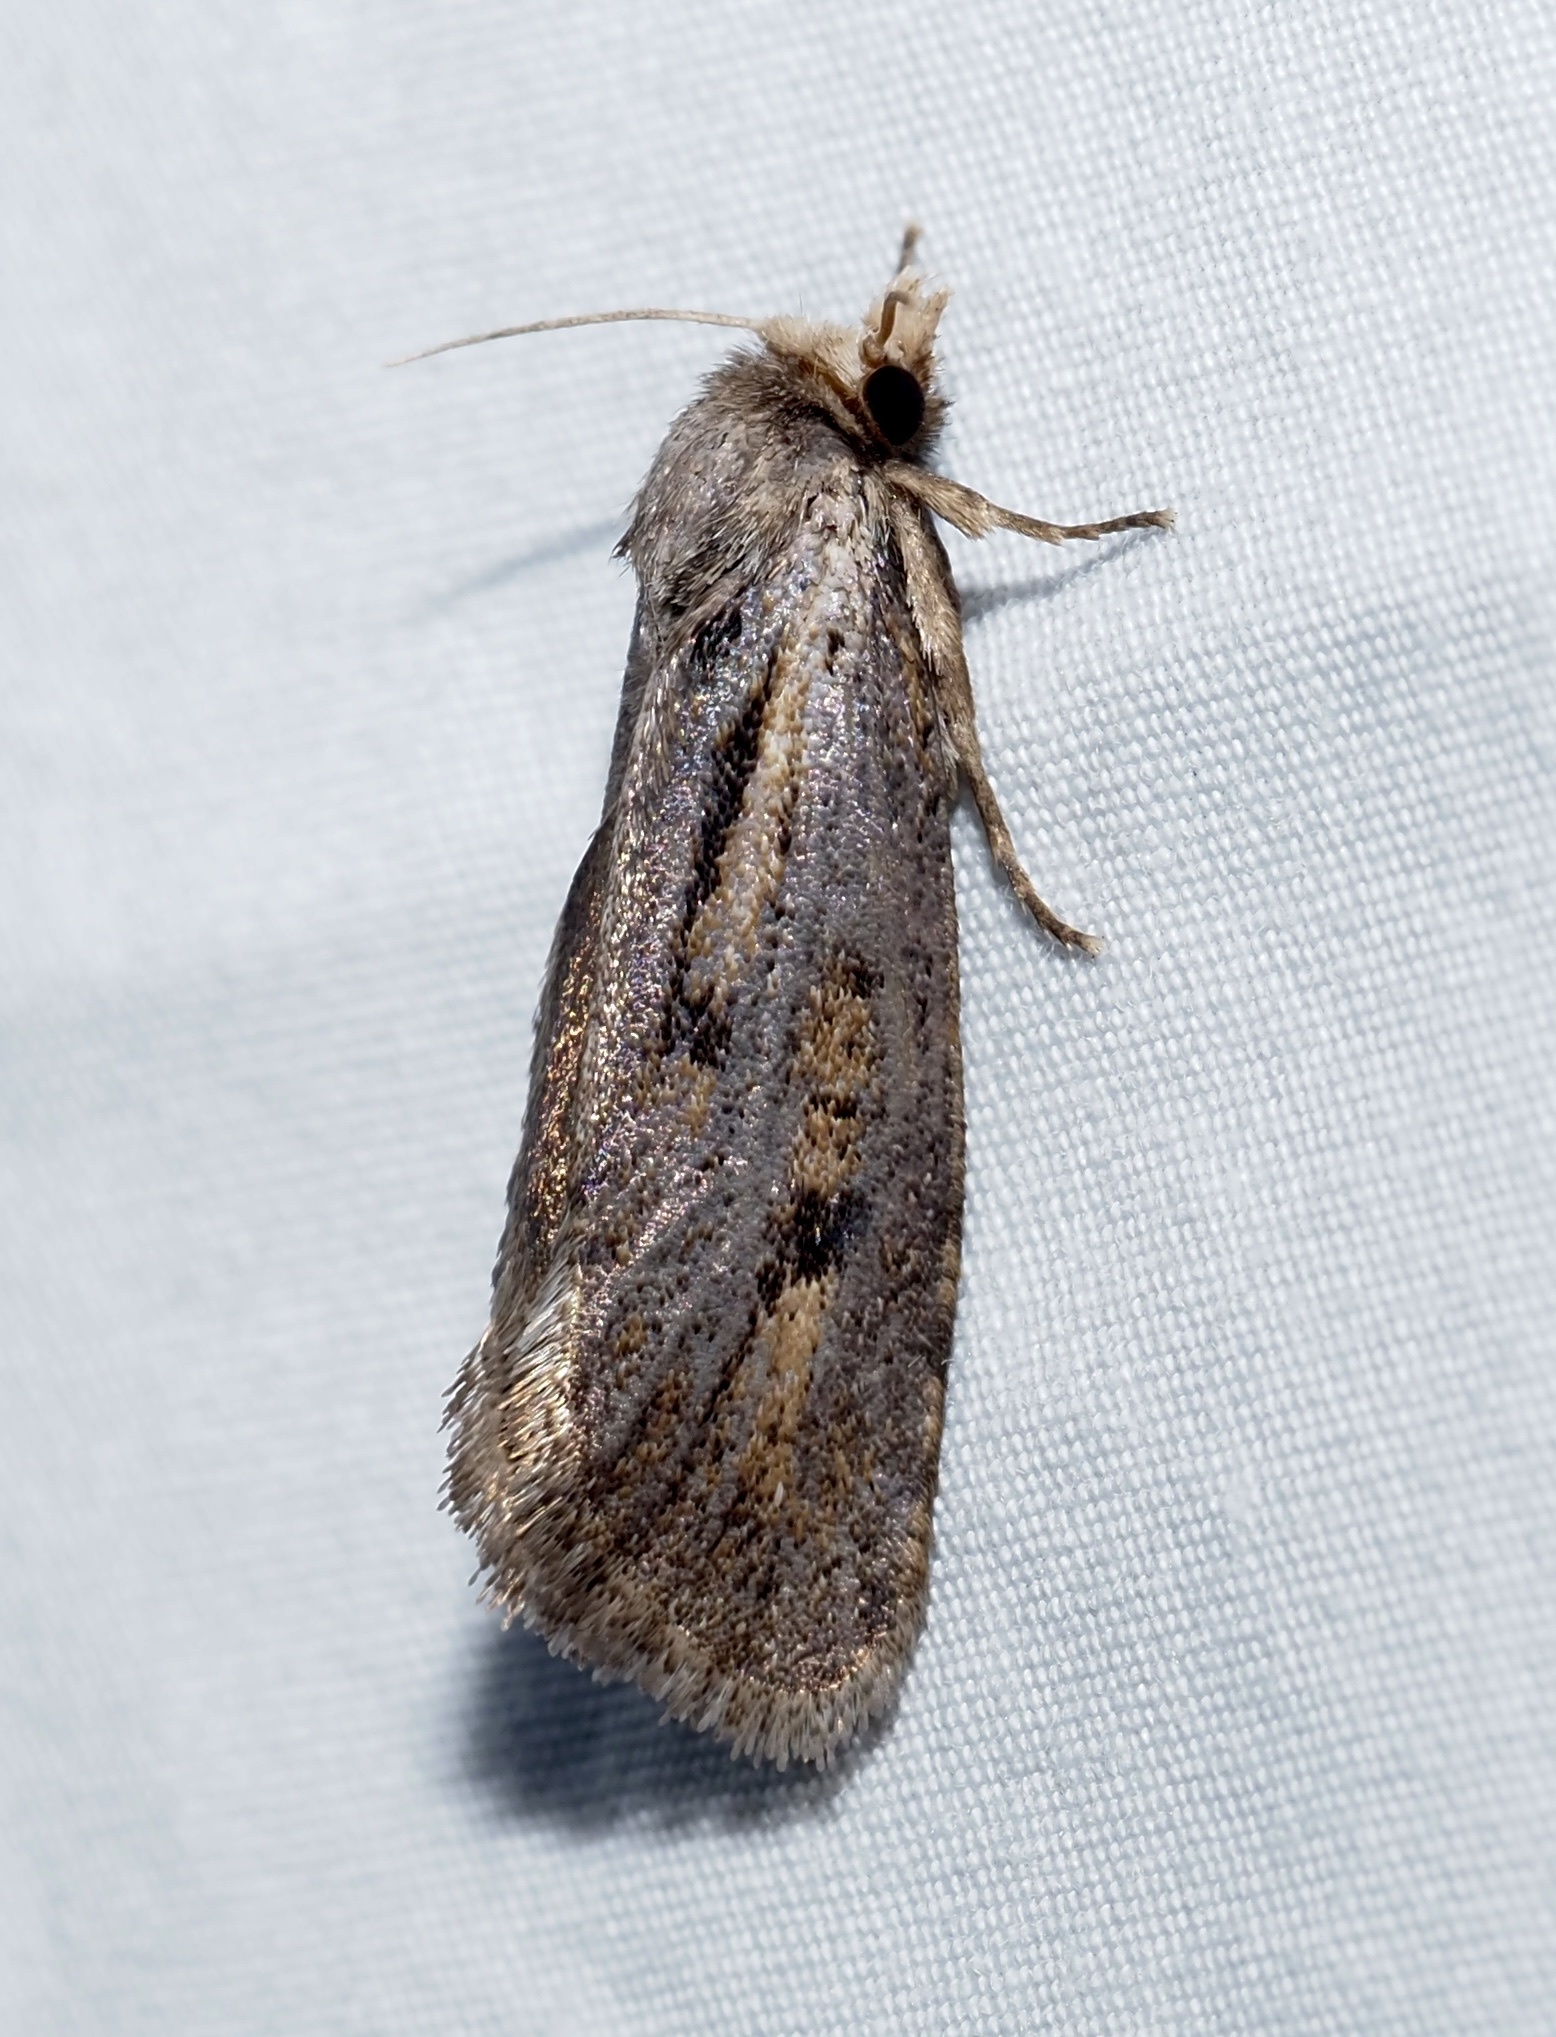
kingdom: Animalia
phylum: Arthropoda
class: Insecta
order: Lepidoptera
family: Tineidae
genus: Acrolophus
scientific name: Acrolophus popeanella
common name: Clemens' grass tubeworm moth
